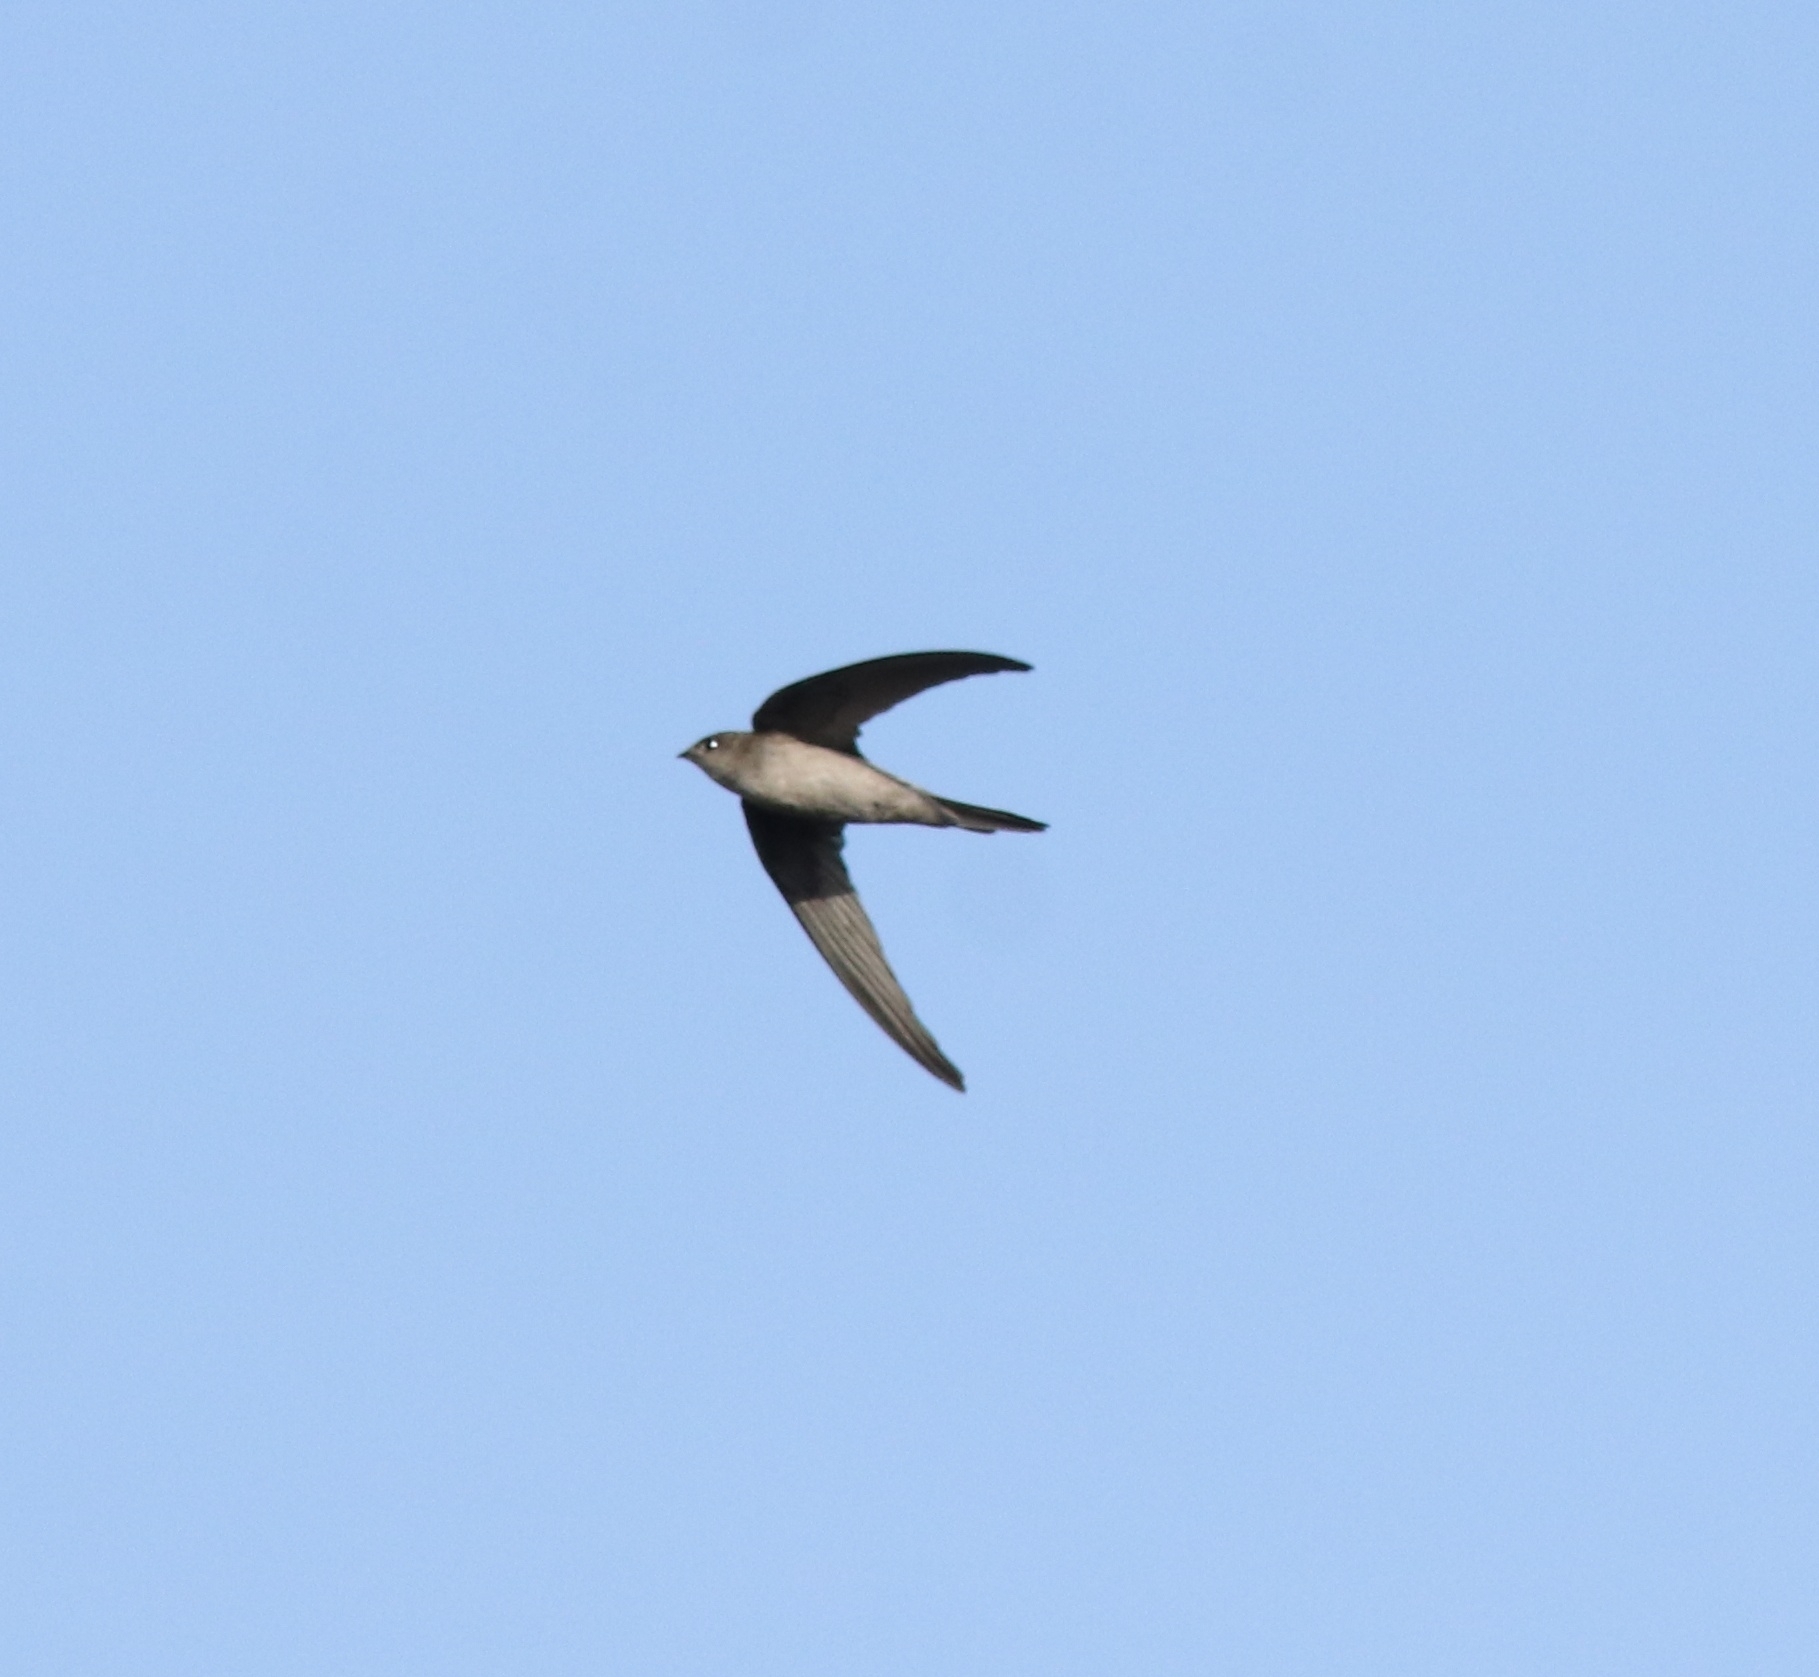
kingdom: Animalia
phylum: Chordata
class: Aves
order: Apodiformes
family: Apodidae
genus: Cypsiurus
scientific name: Cypsiurus balasiensis
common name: Asian palm swift
